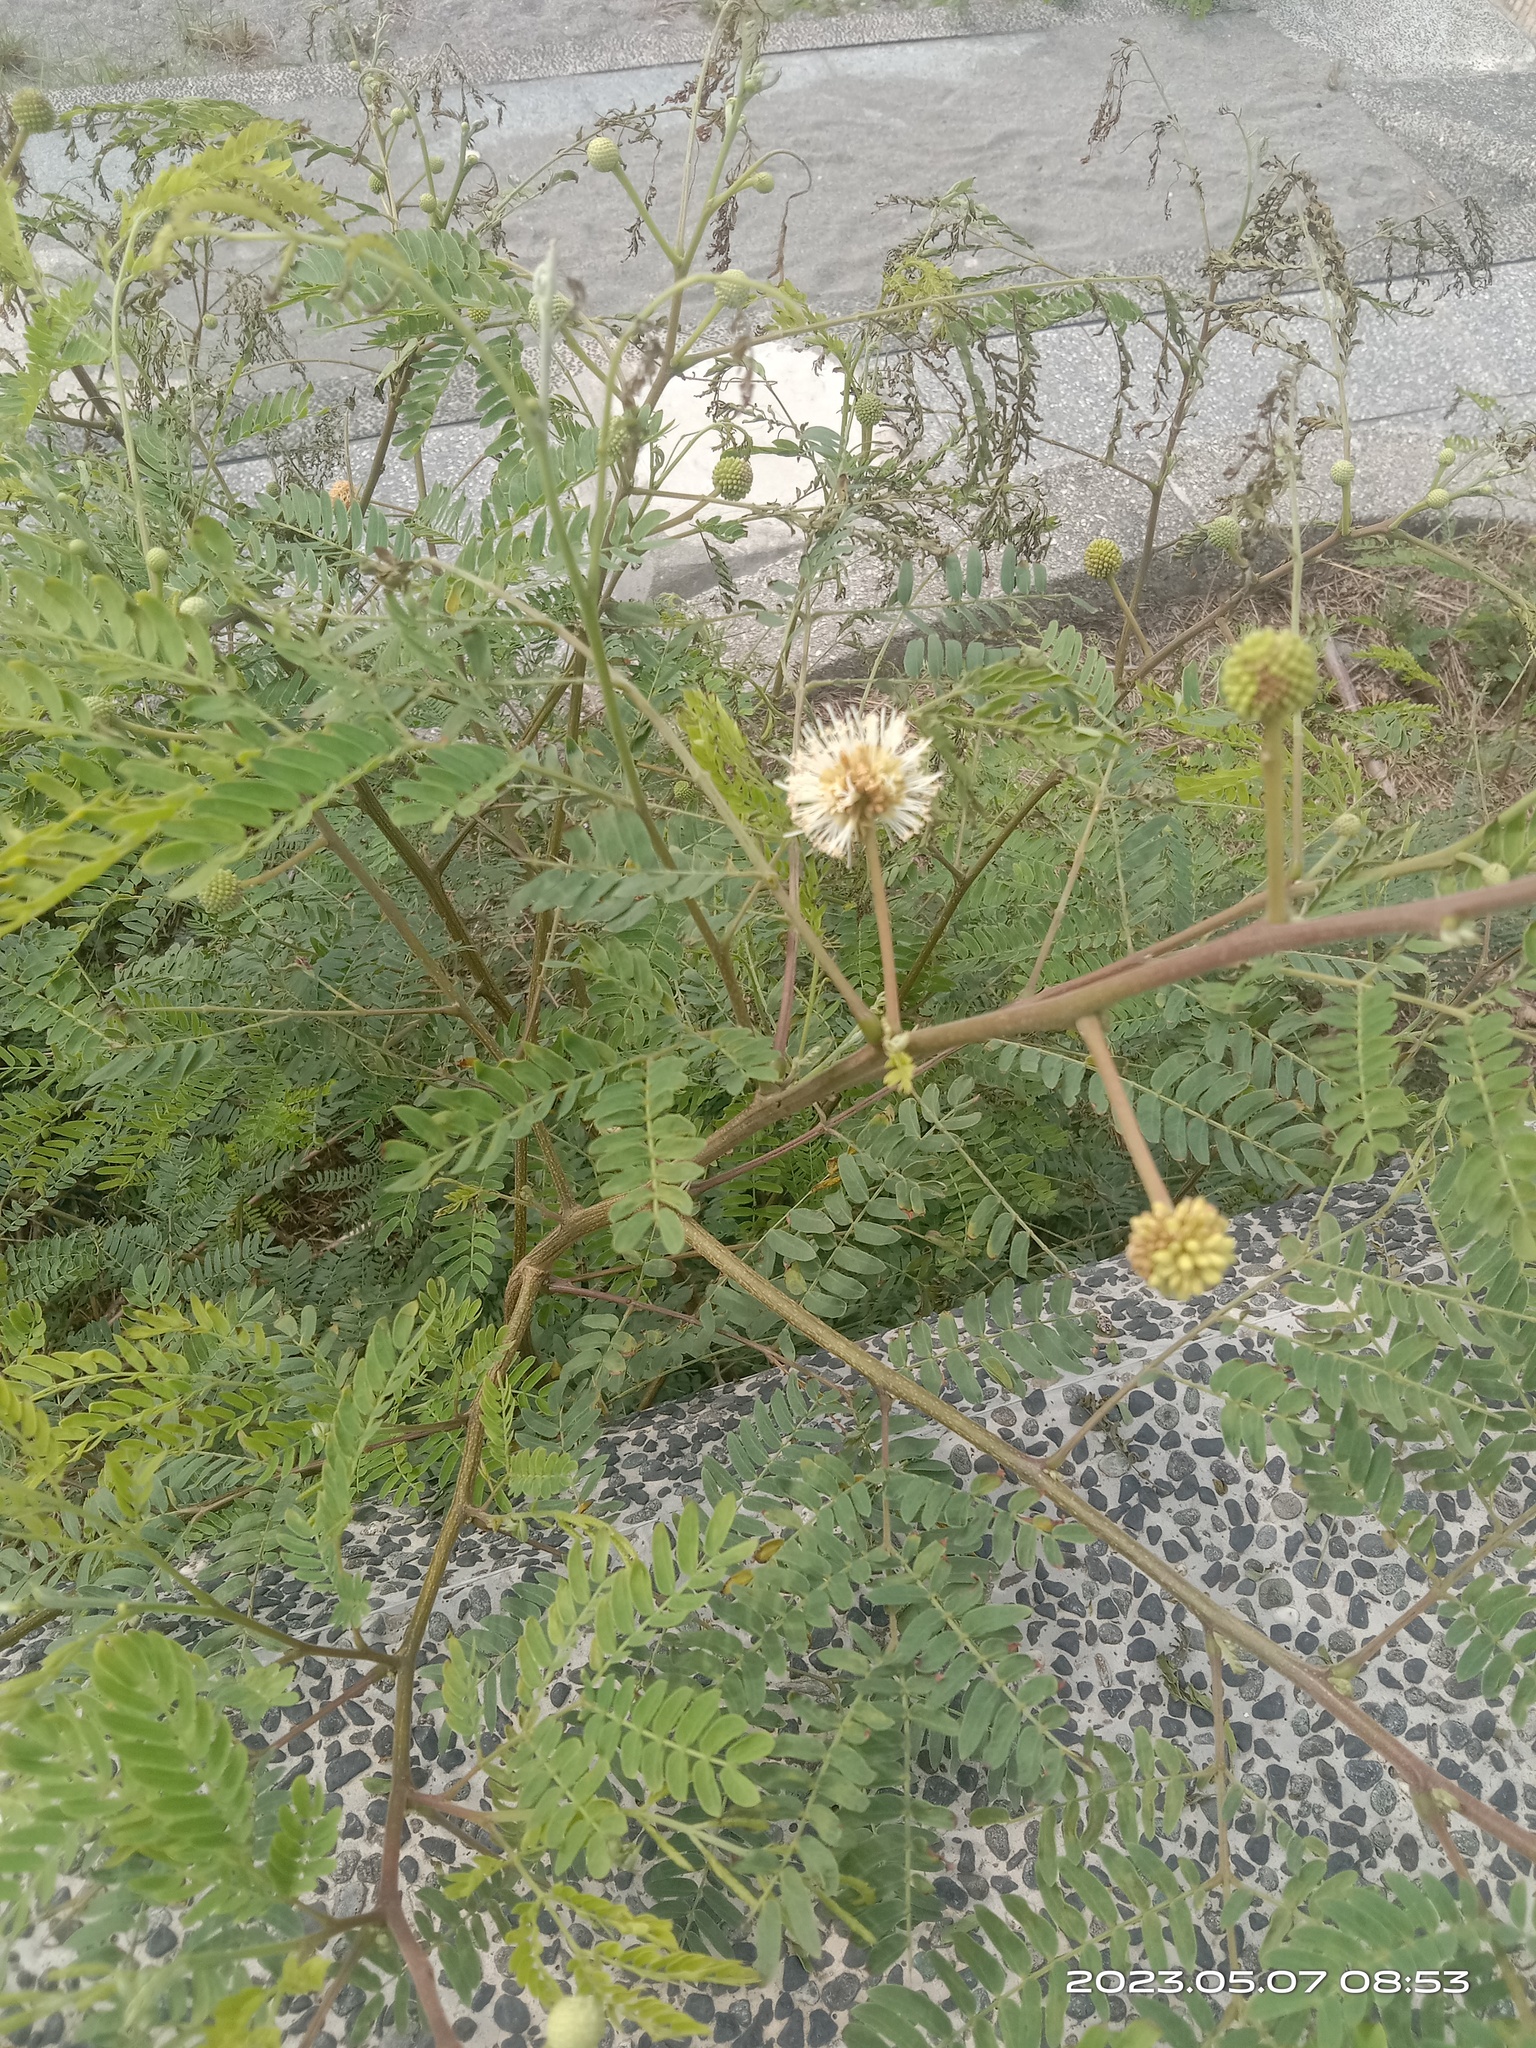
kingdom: Plantae
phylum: Tracheophyta
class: Magnoliopsida
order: Fabales
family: Fabaceae
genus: Leucaena
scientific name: Leucaena leucocephala
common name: White leadtree
